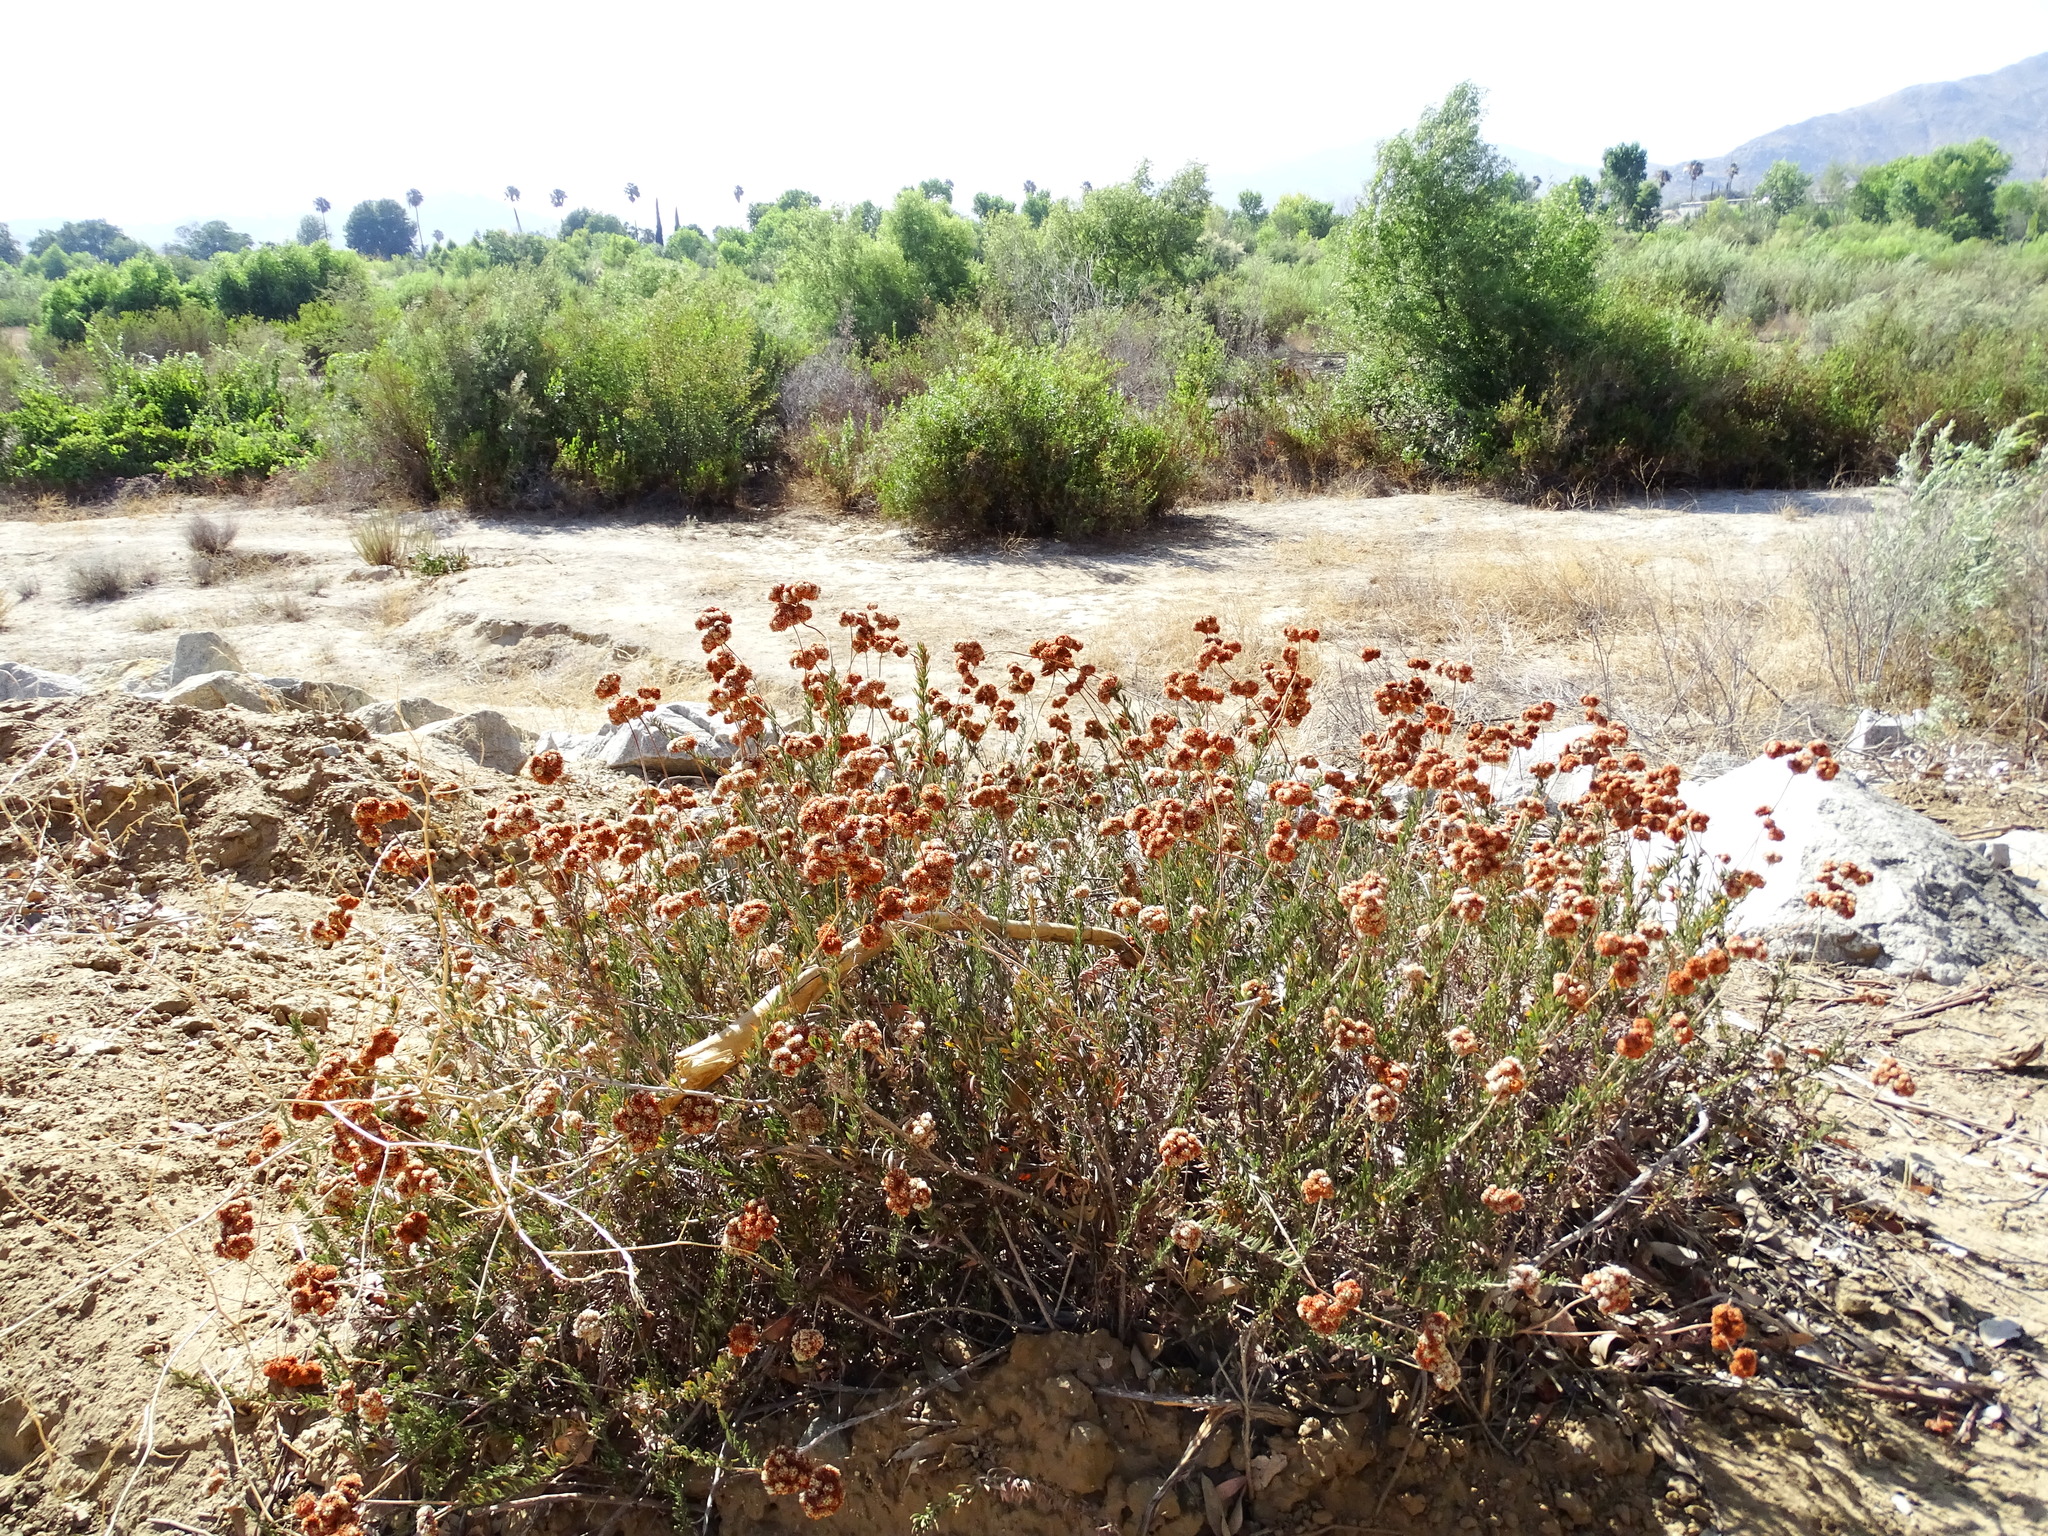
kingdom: Plantae
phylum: Tracheophyta
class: Magnoliopsida
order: Caryophyllales
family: Polygonaceae
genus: Eriogonum
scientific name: Eriogonum fasciculatum
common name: California wild buckwheat
